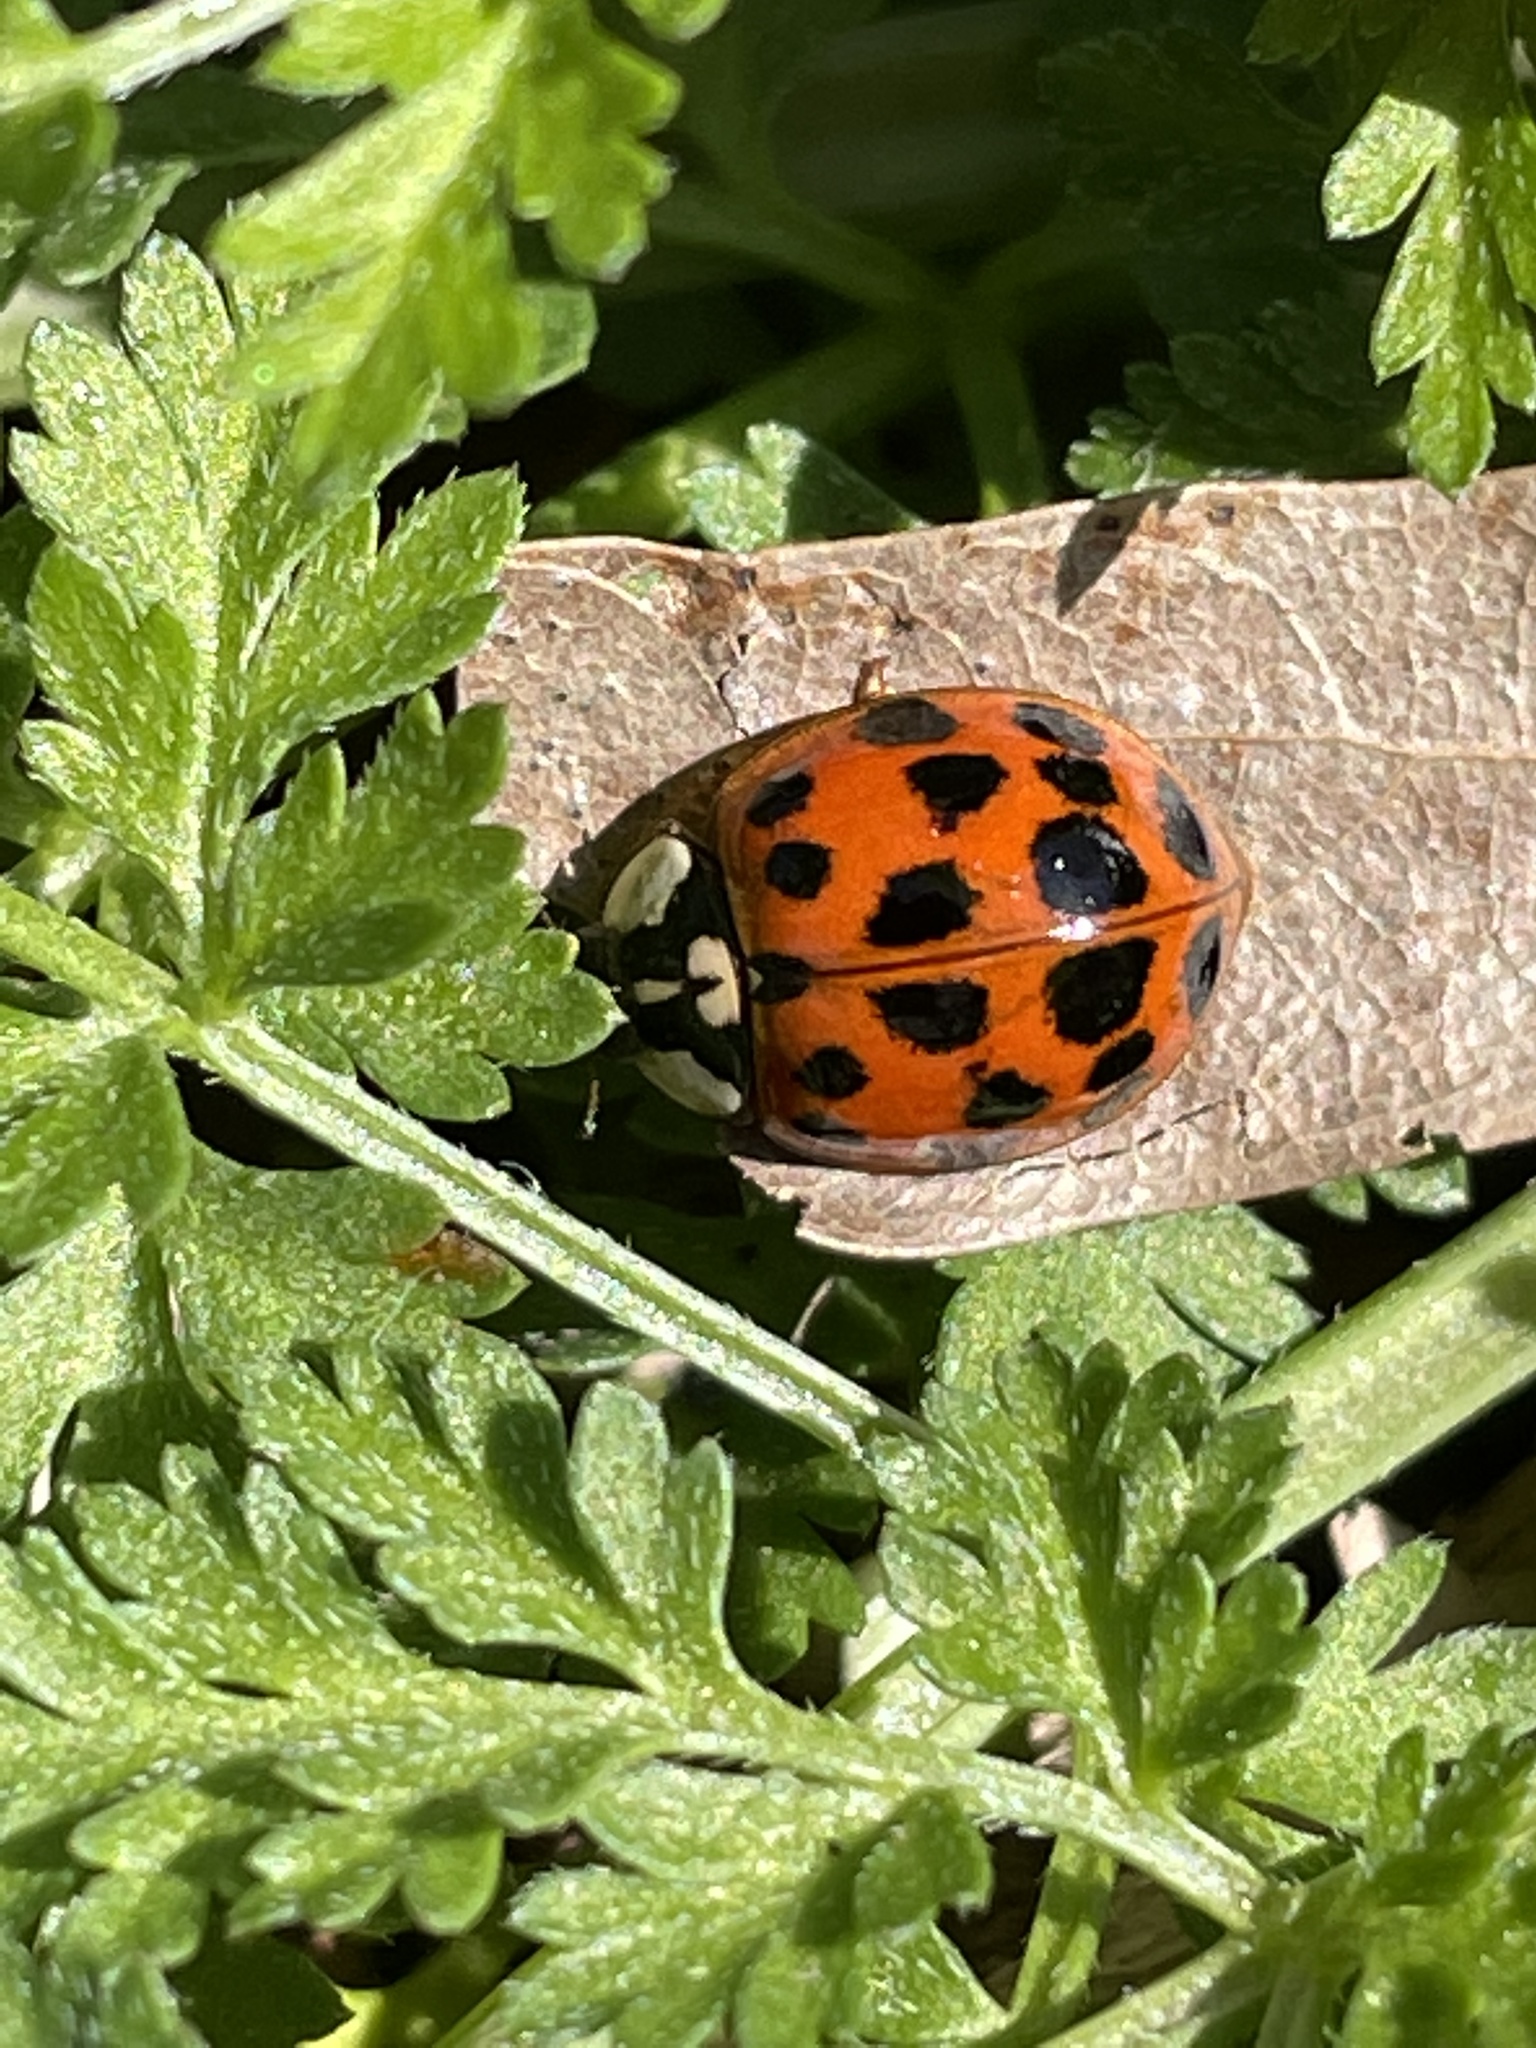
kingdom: Animalia
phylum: Arthropoda
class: Insecta
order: Coleoptera
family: Coccinellidae
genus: Harmonia
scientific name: Harmonia axyridis
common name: Harlequin ladybird
